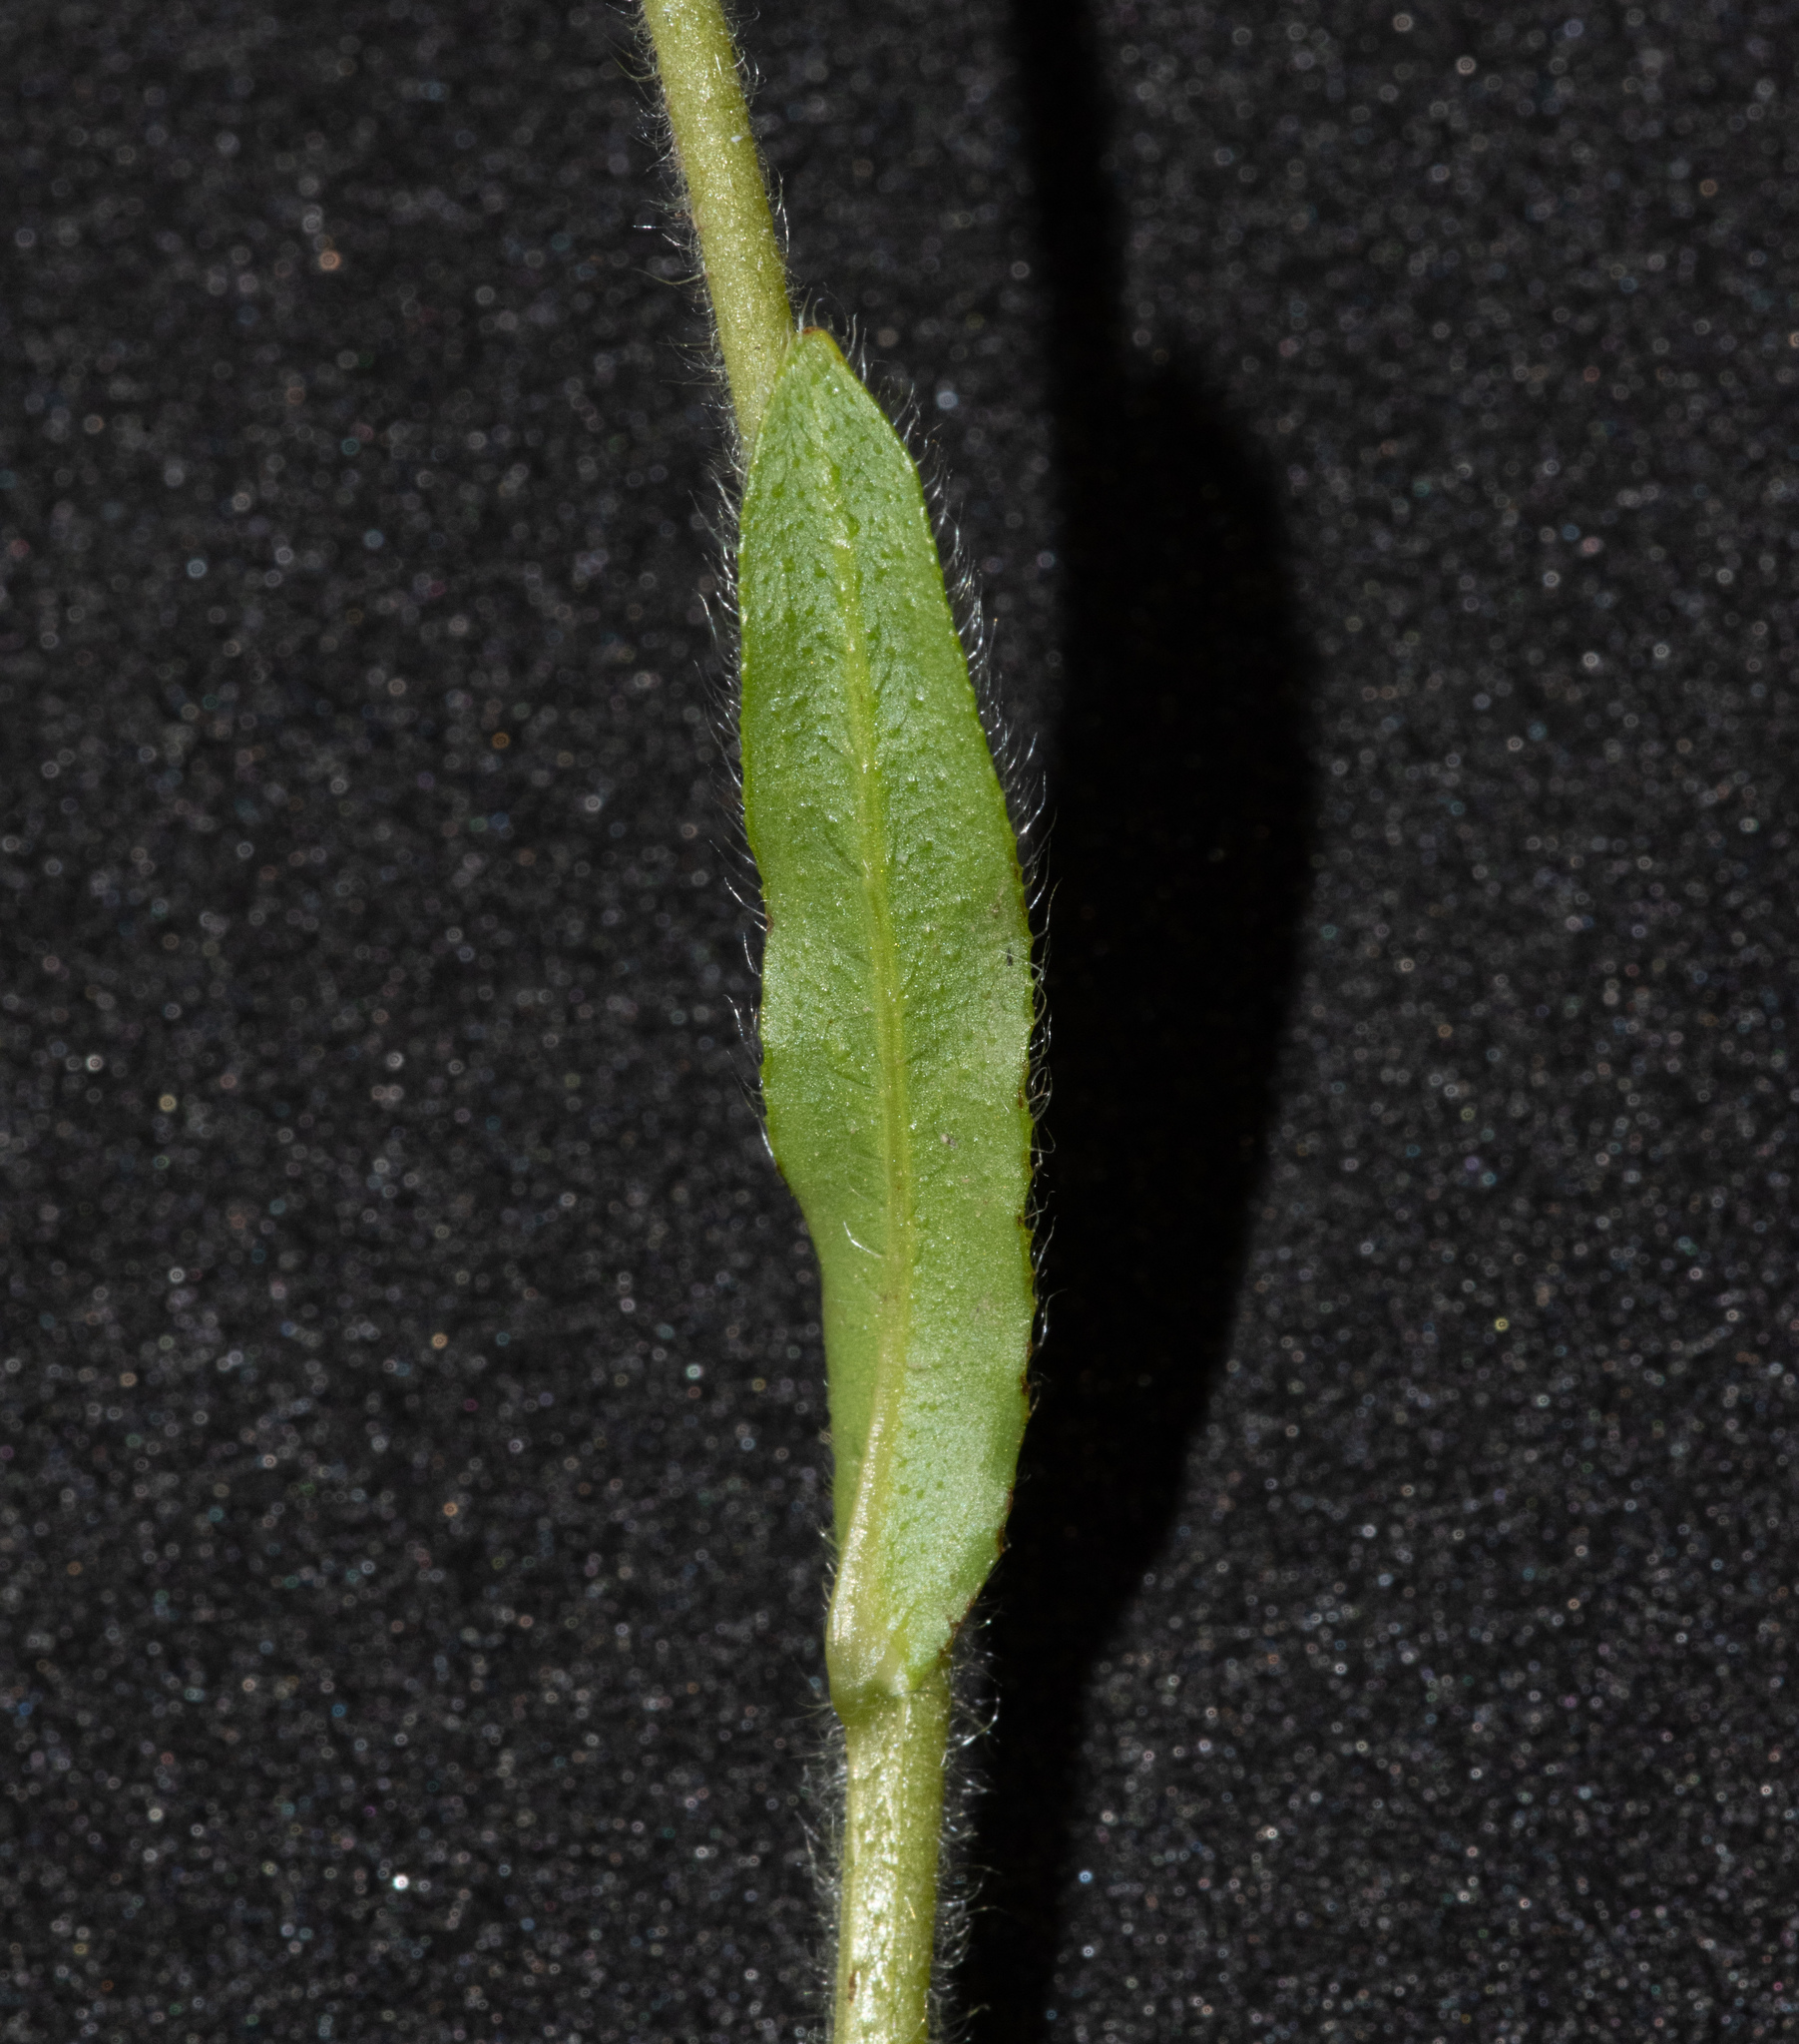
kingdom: Plantae
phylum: Tracheophyta
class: Magnoliopsida
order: Boraginales
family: Boraginaceae
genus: Plagiobothrys
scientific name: Plagiobothrys nothofulvus
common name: Popcorn-flower
